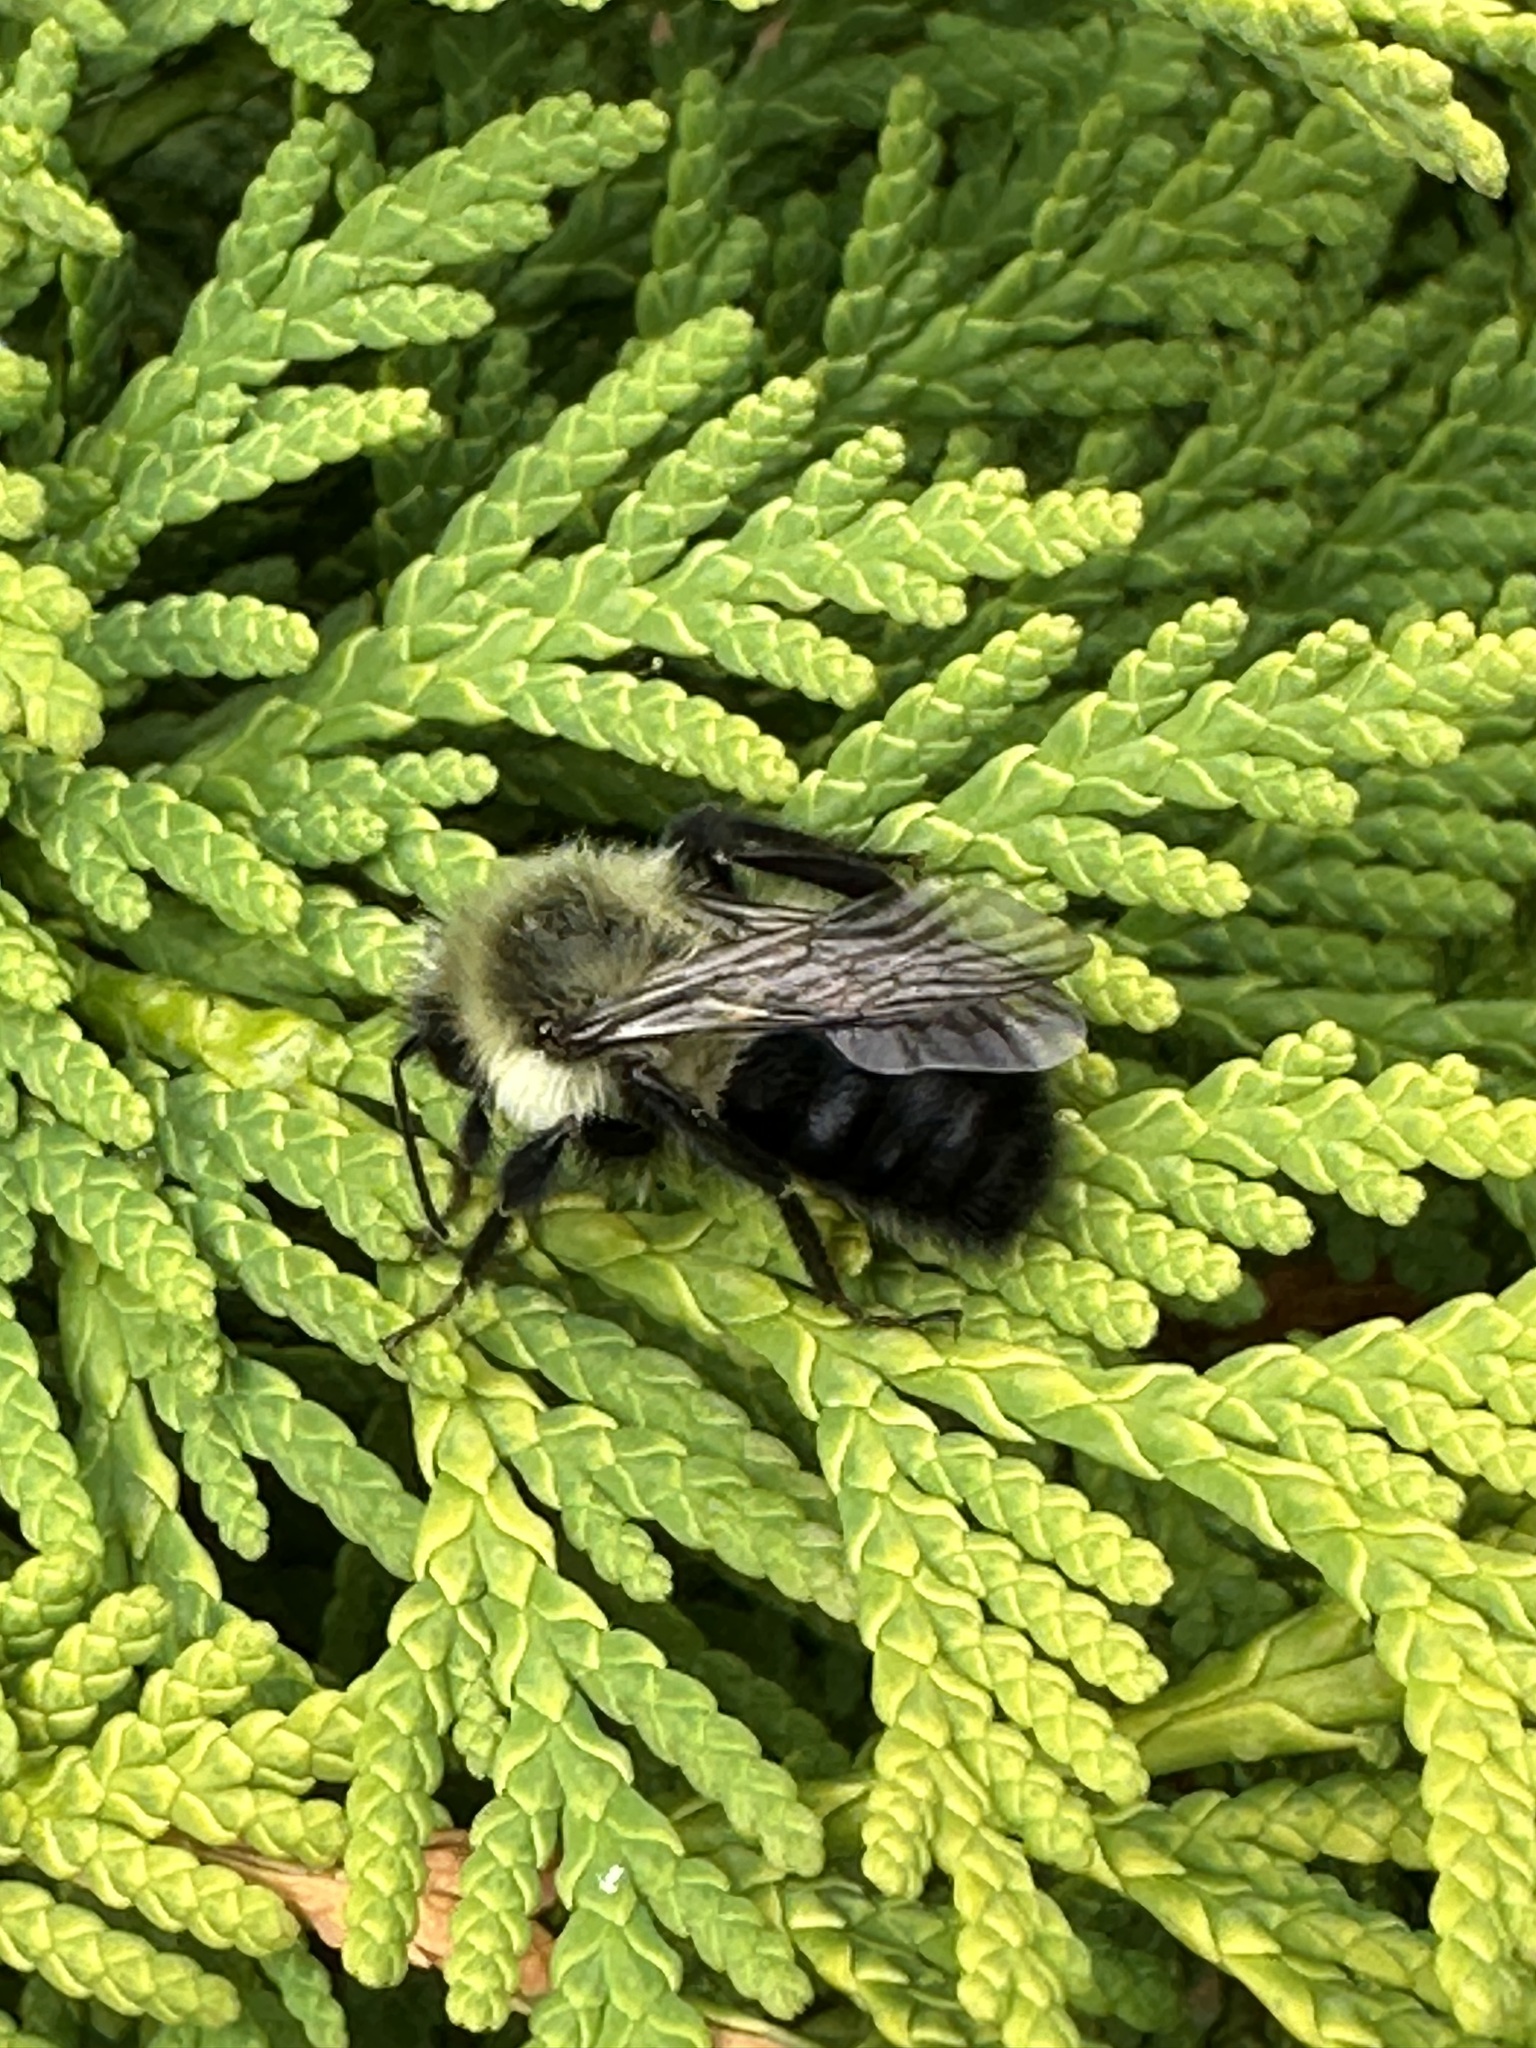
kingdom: Animalia
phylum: Arthropoda
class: Insecta
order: Hymenoptera
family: Apidae
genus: Bombus
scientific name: Bombus impatiens
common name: Common eastern bumble bee
